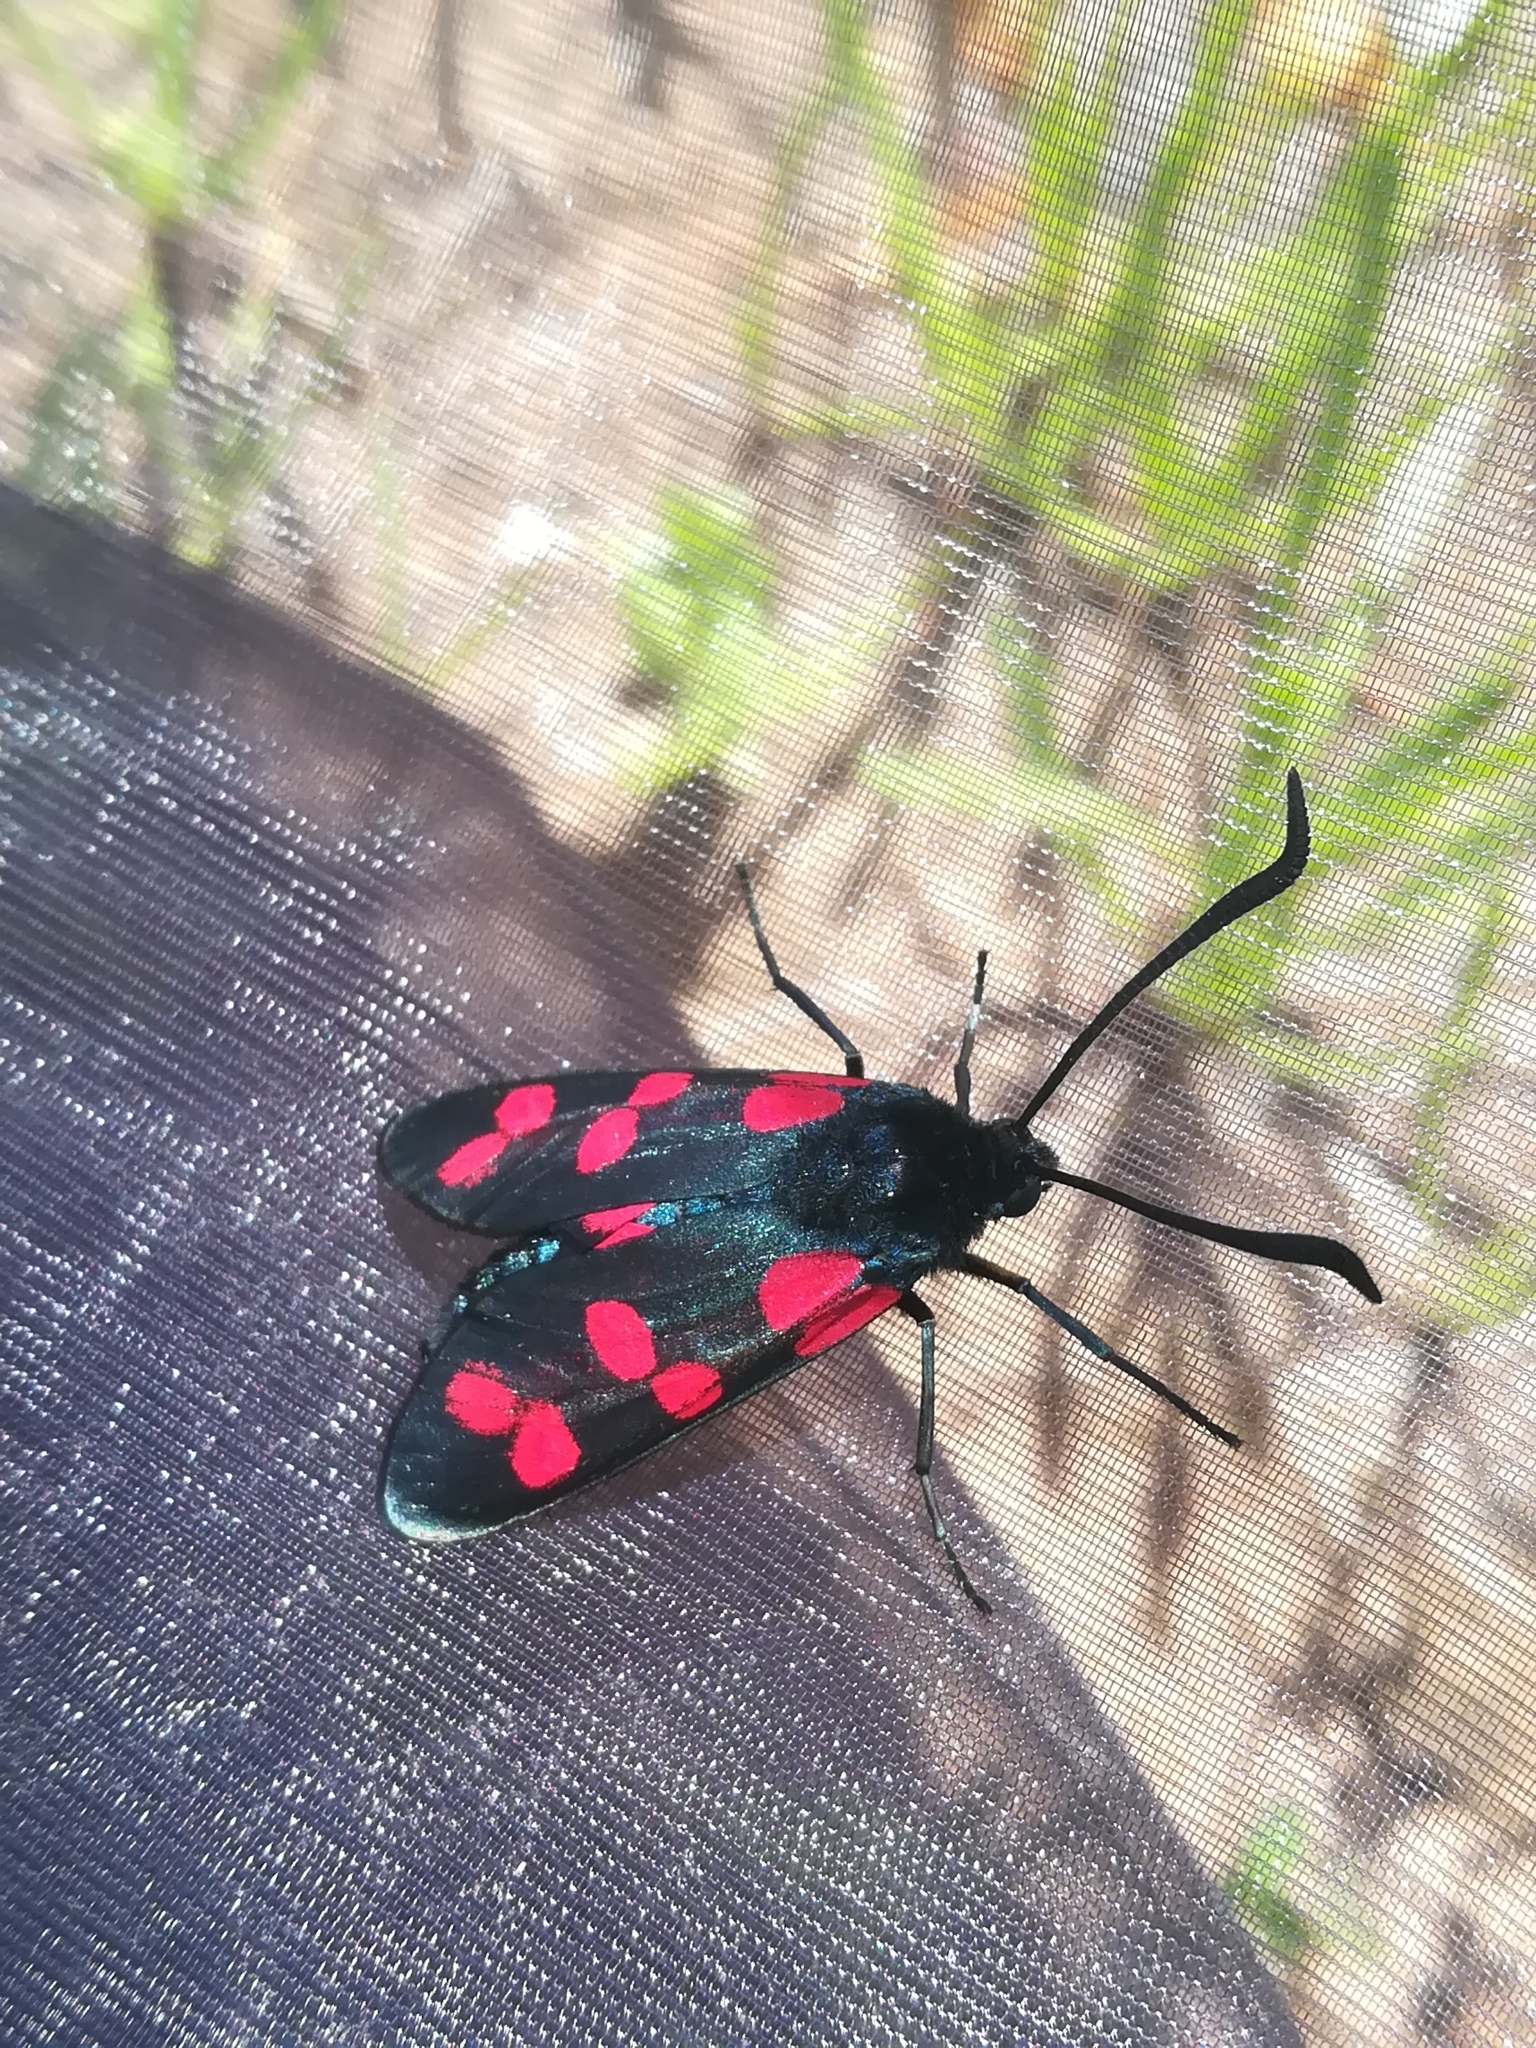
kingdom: Animalia
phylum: Arthropoda
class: Insecta
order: Lepidoptera
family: Zygaenidae
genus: Zygaena
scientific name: Zygaena filipendulae
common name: Six-spot burnet
